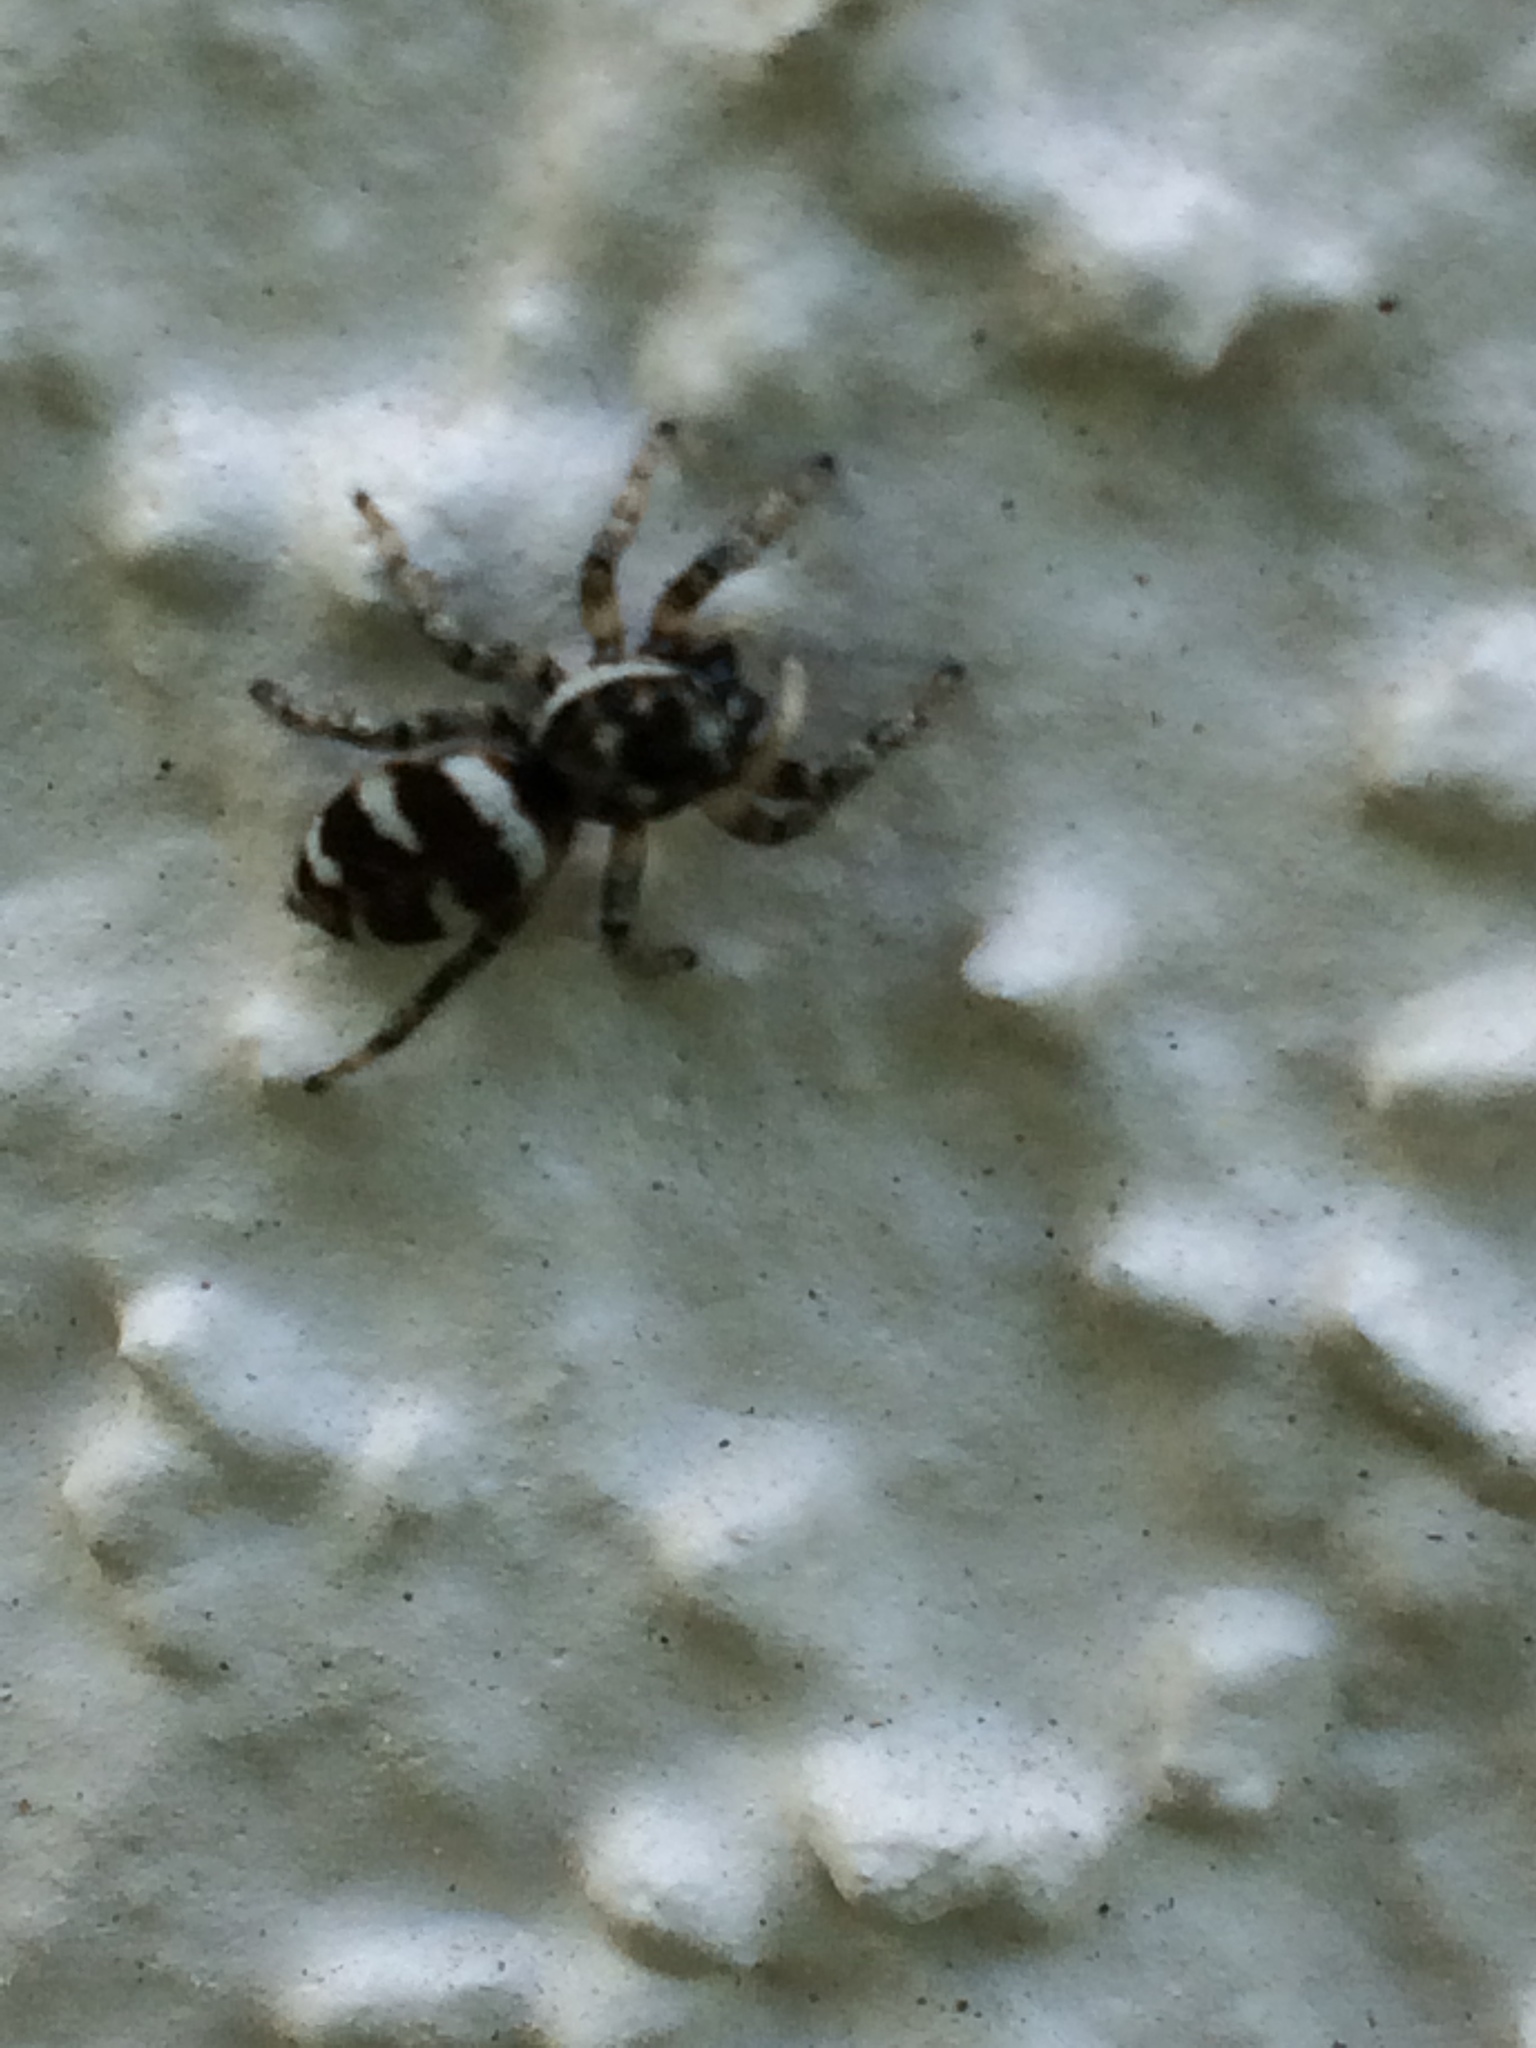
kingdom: Animalia
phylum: Arthropoda
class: Arachnida
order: Araneae
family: Salticidae
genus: Salticus
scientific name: Salticus scenicus
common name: Zebra jumper
